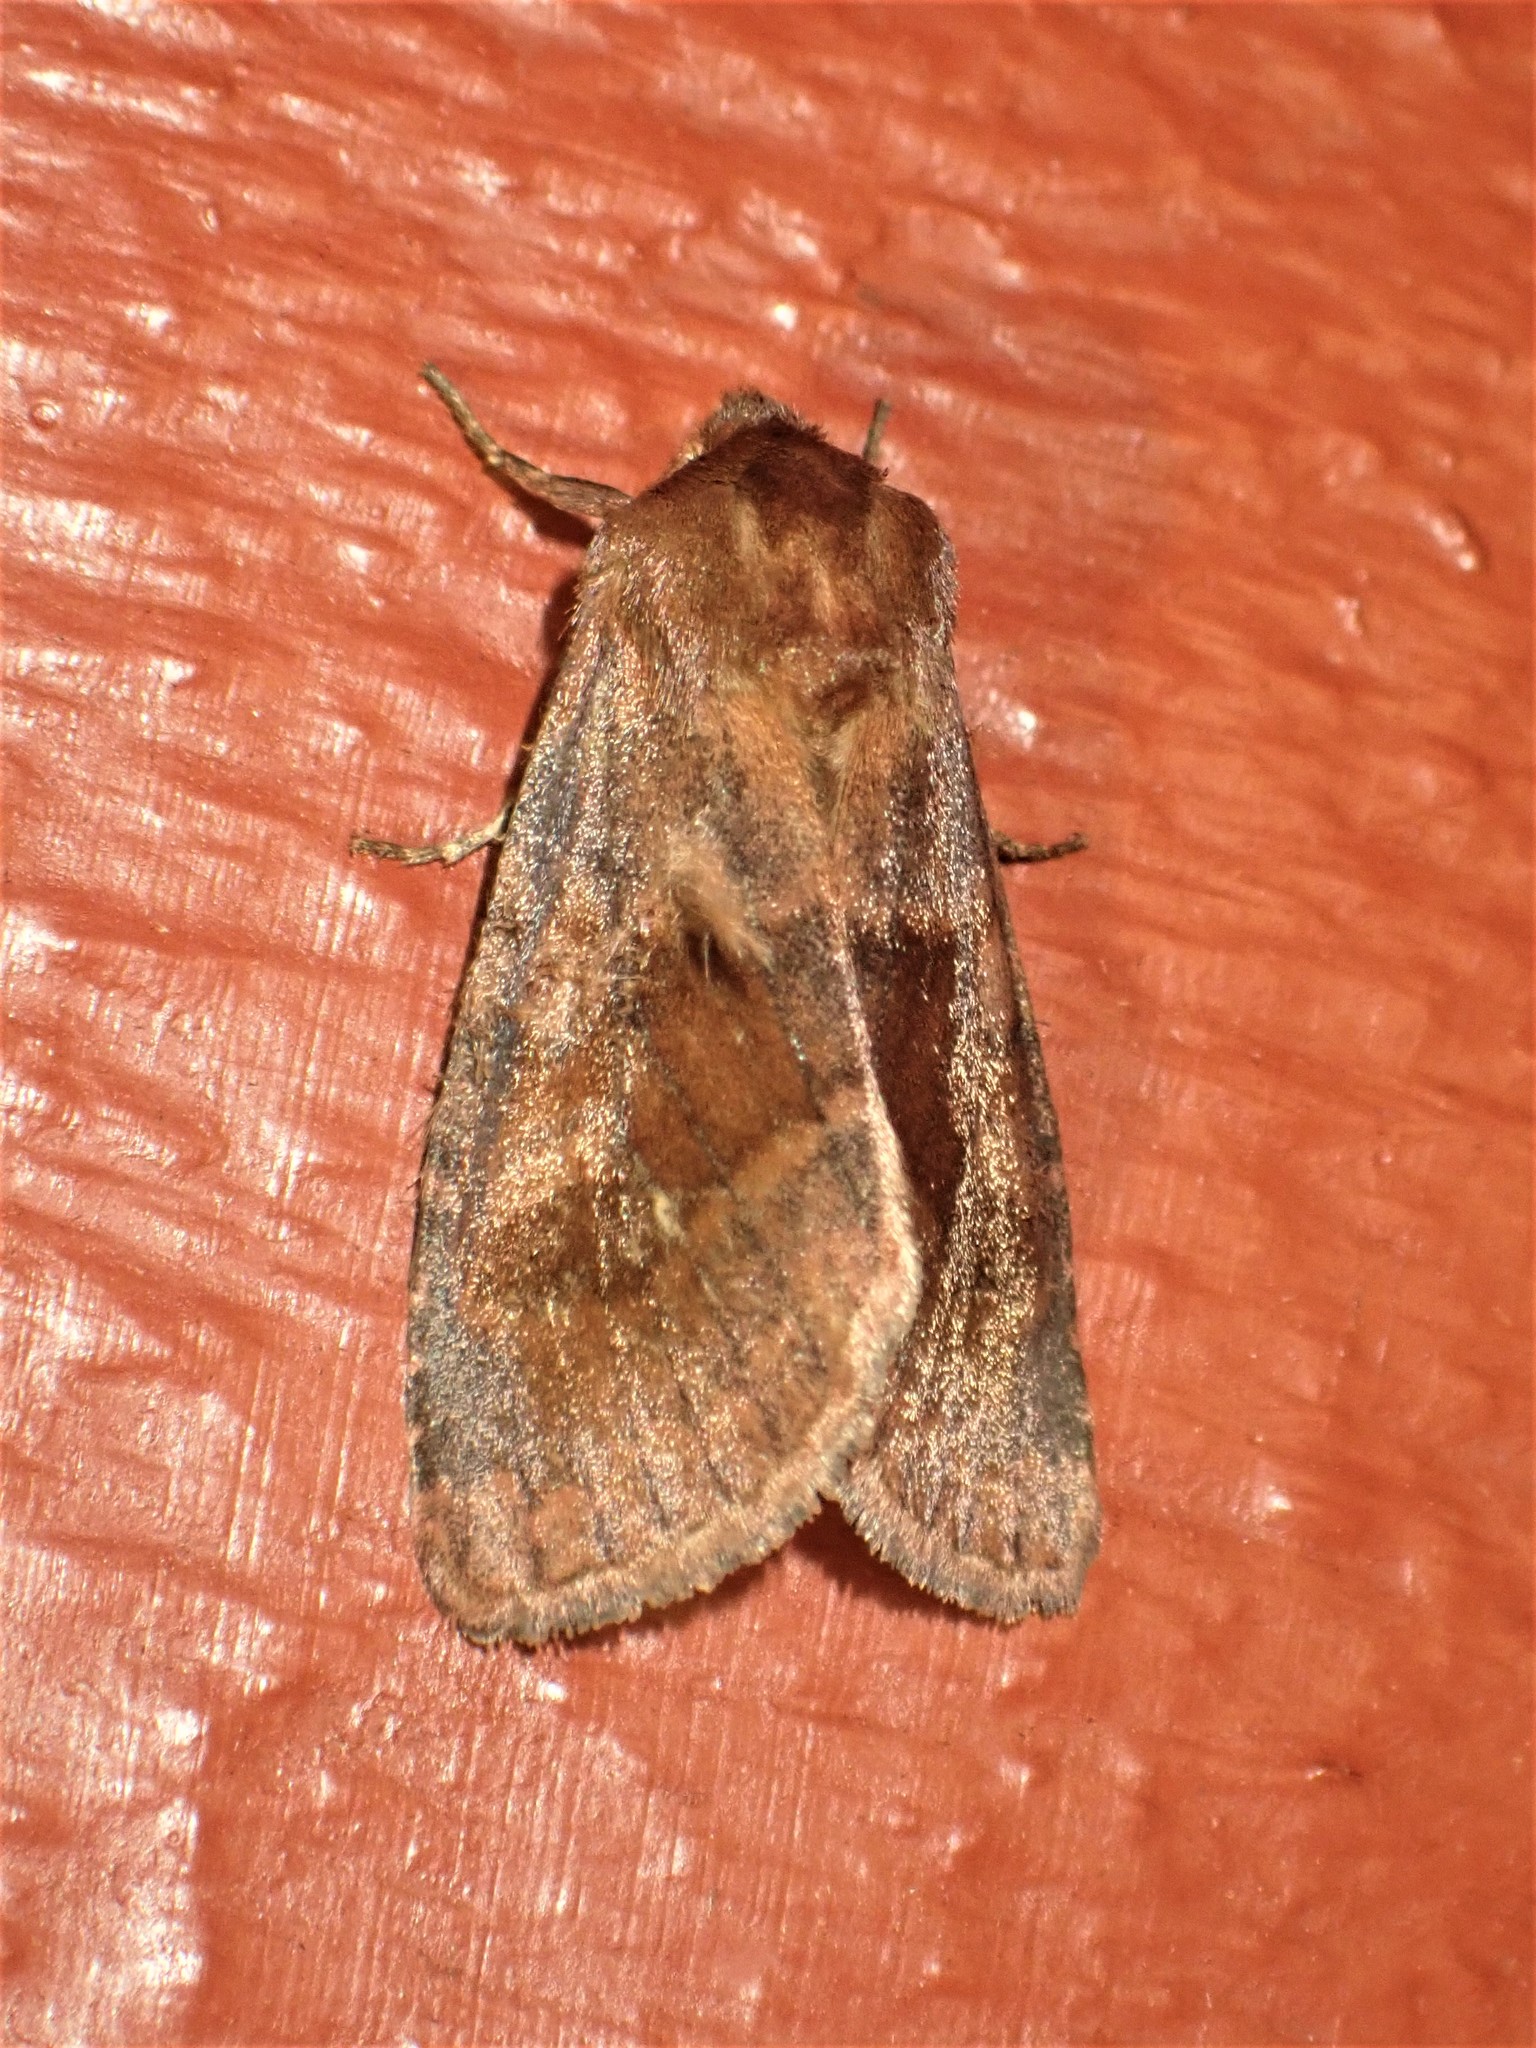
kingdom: Animalia
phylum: Arthropoda
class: Insecta
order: Lepidoptera
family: Noctuidae
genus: Nephelodes
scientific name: Nephelodes minians
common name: Bronzed cutworm
